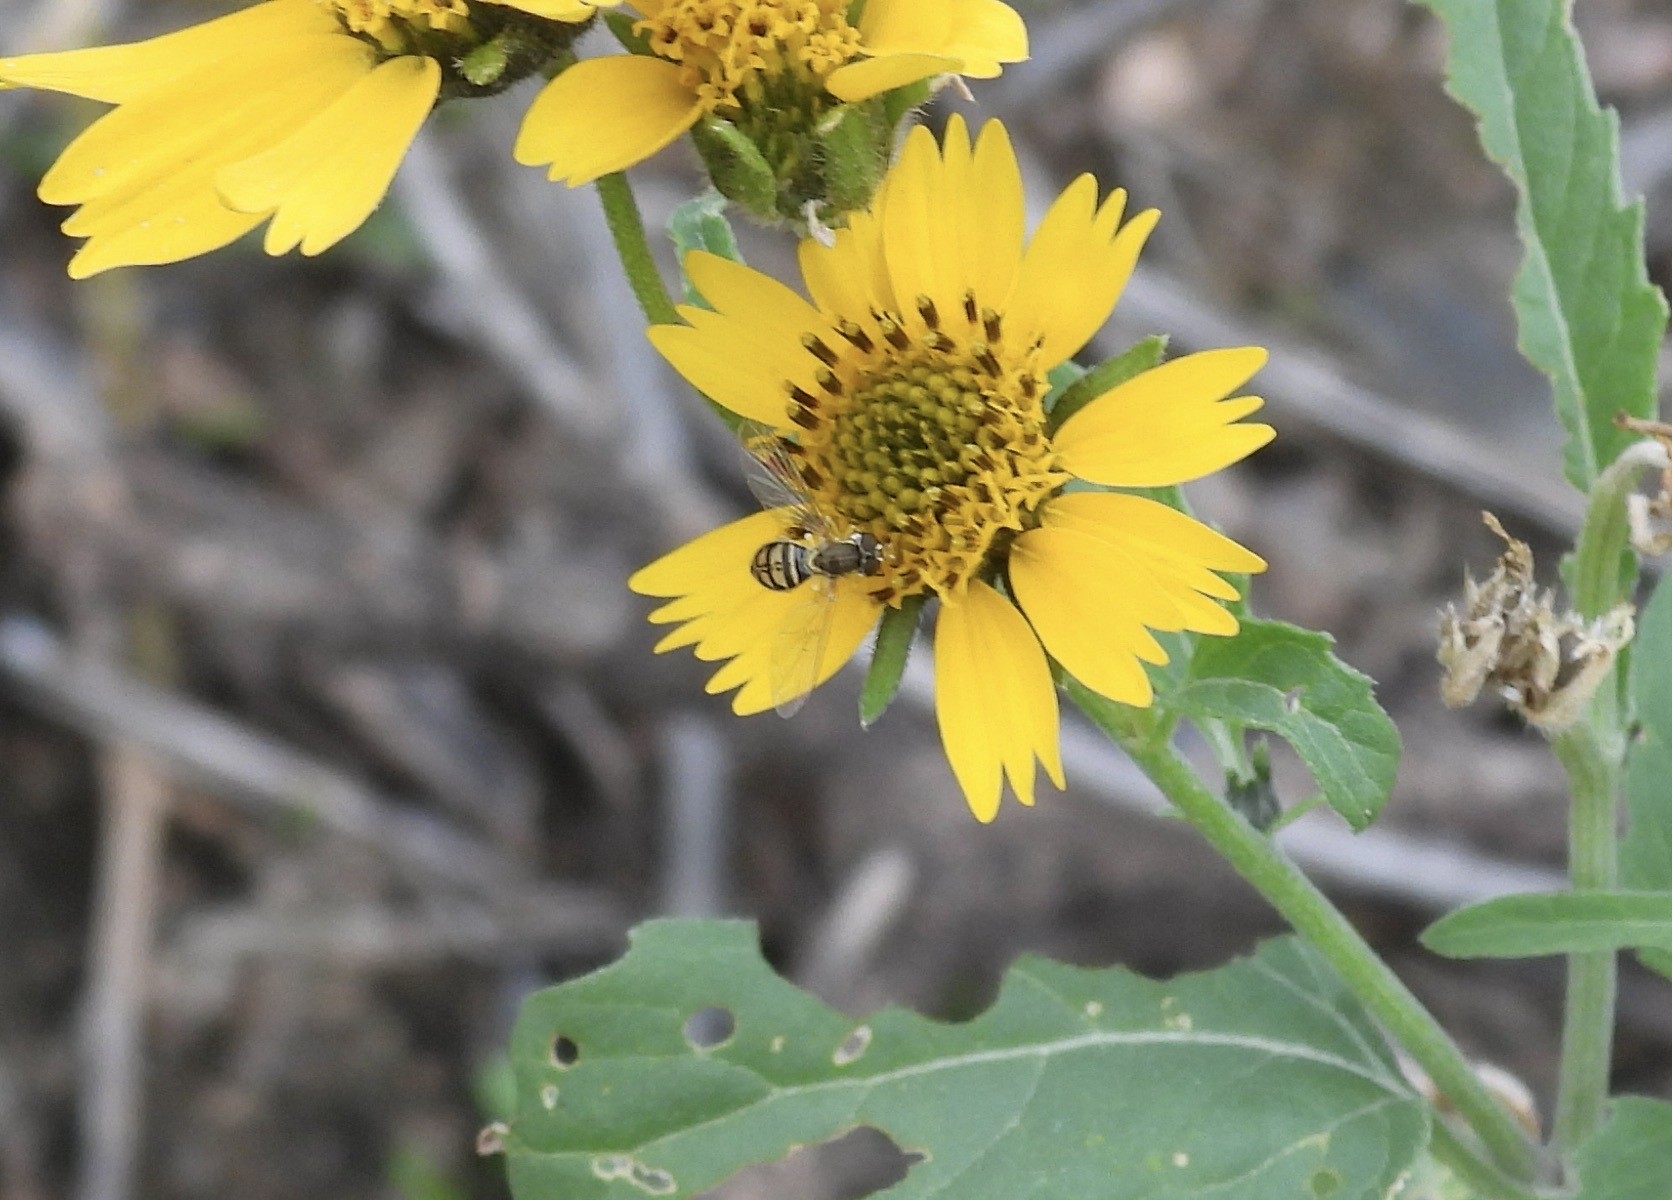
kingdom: Animalia
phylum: Arthropoda
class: Insecta
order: Diptera
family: Syrphidae
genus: Toxomerus
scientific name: Toxomerus marginatus
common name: Syrphid fly
